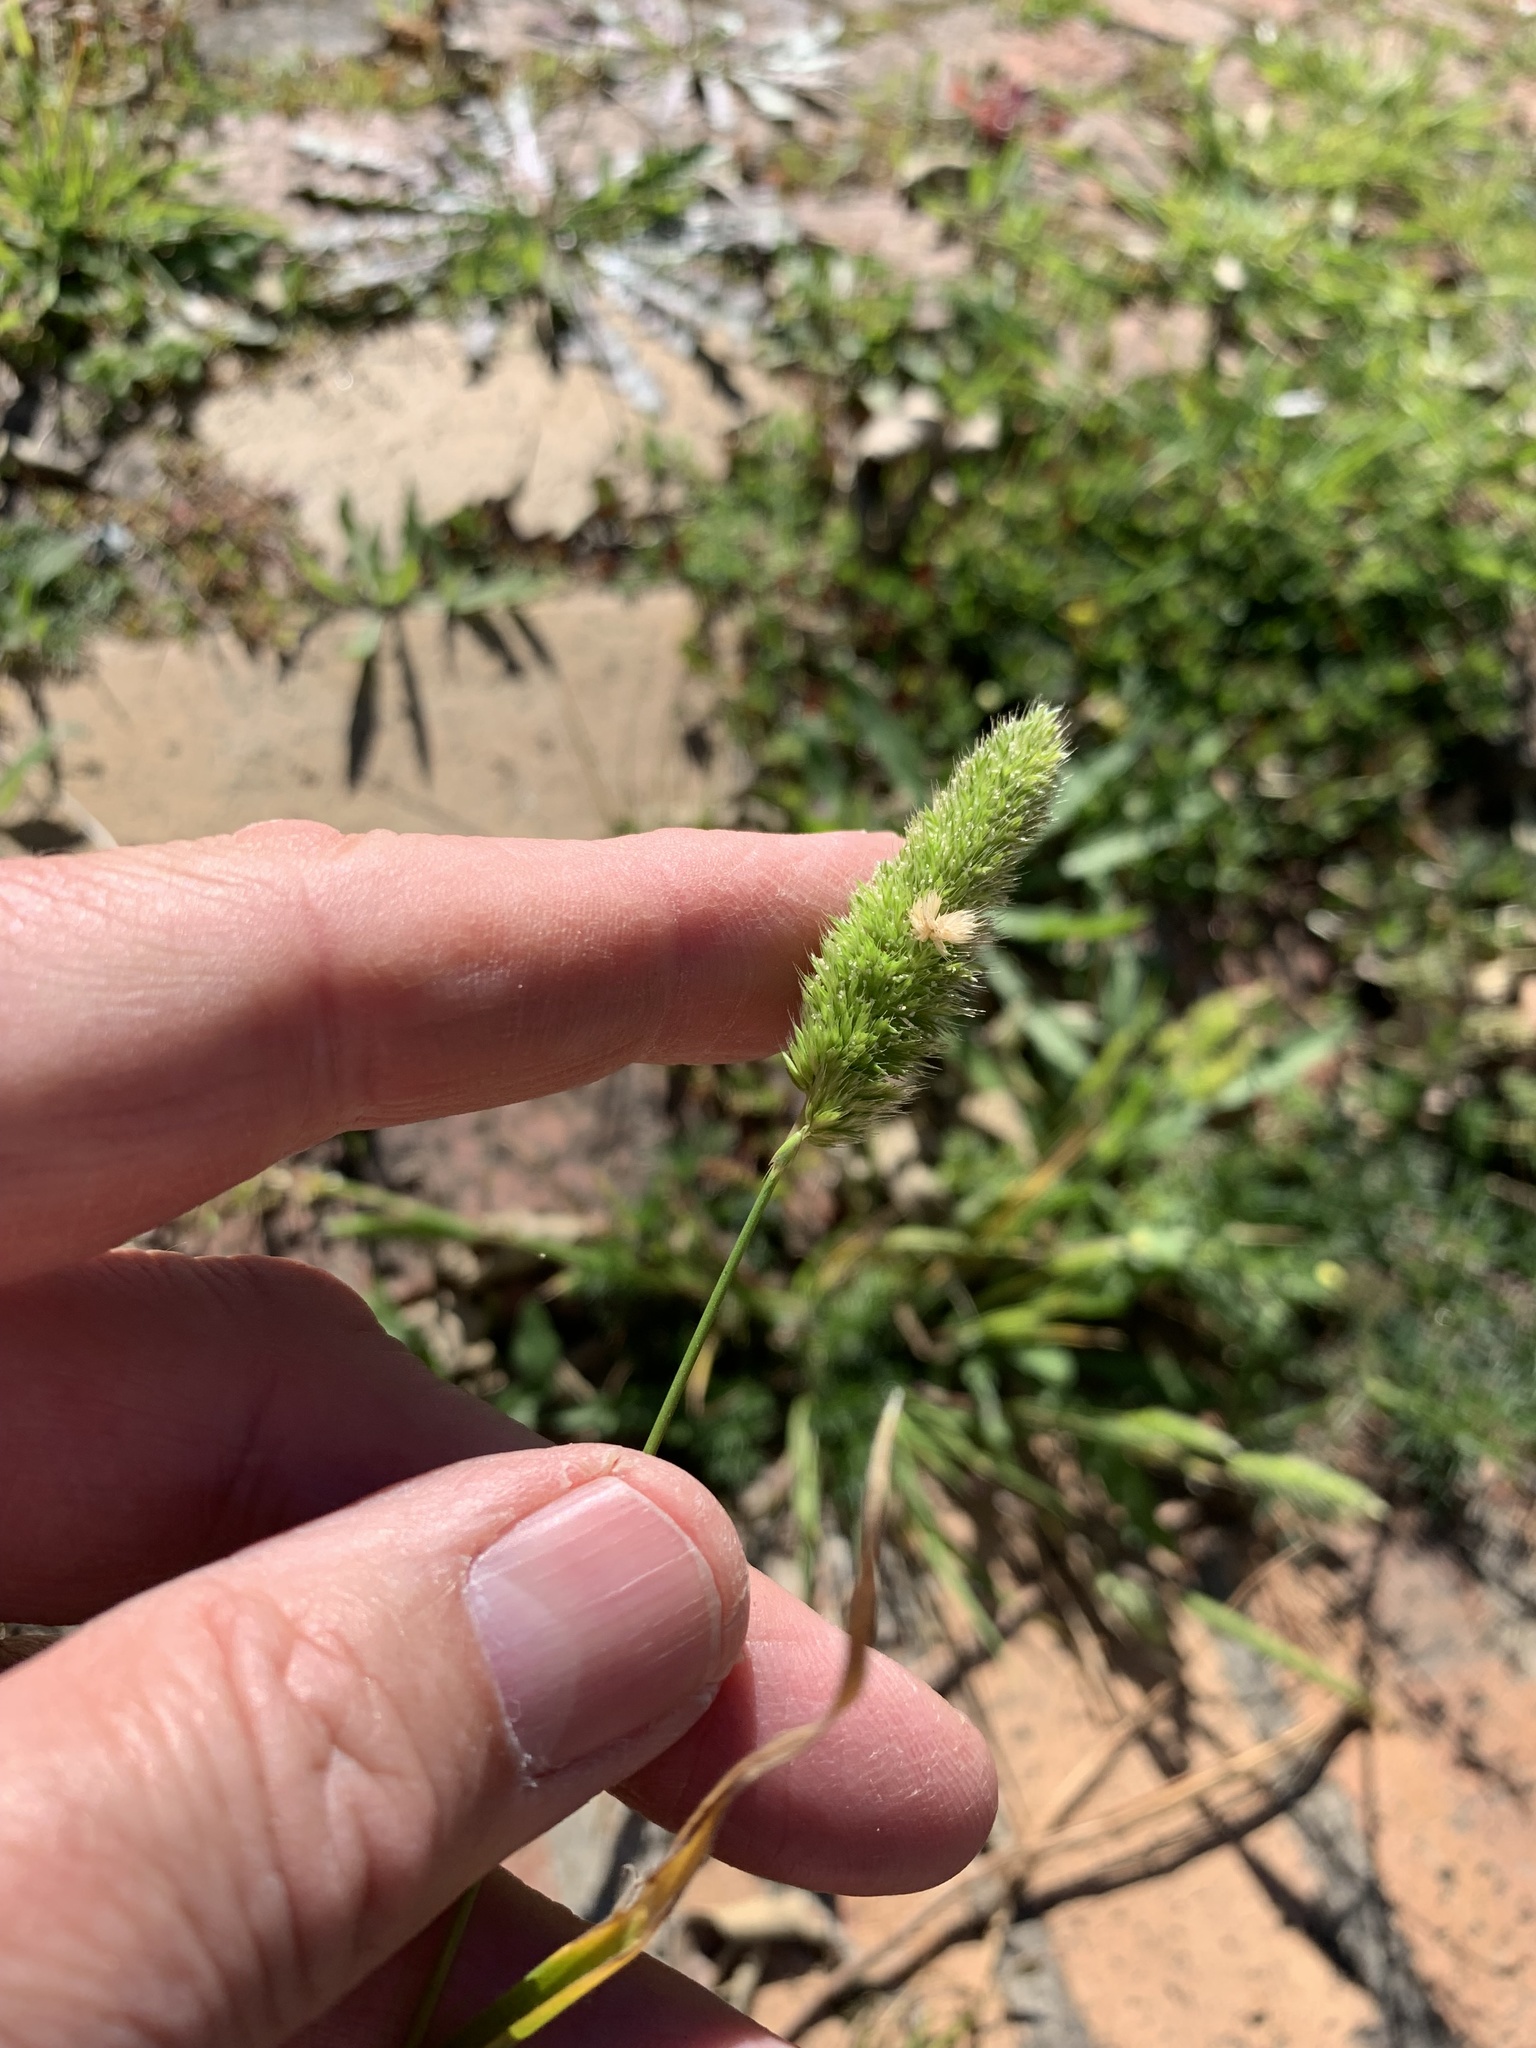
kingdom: Plantae
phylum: Tracheophyta
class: Liliopsida
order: Poales
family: Poaceae
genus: Rostraria
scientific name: Rostraria cristata
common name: Mediterranean hair-grass
